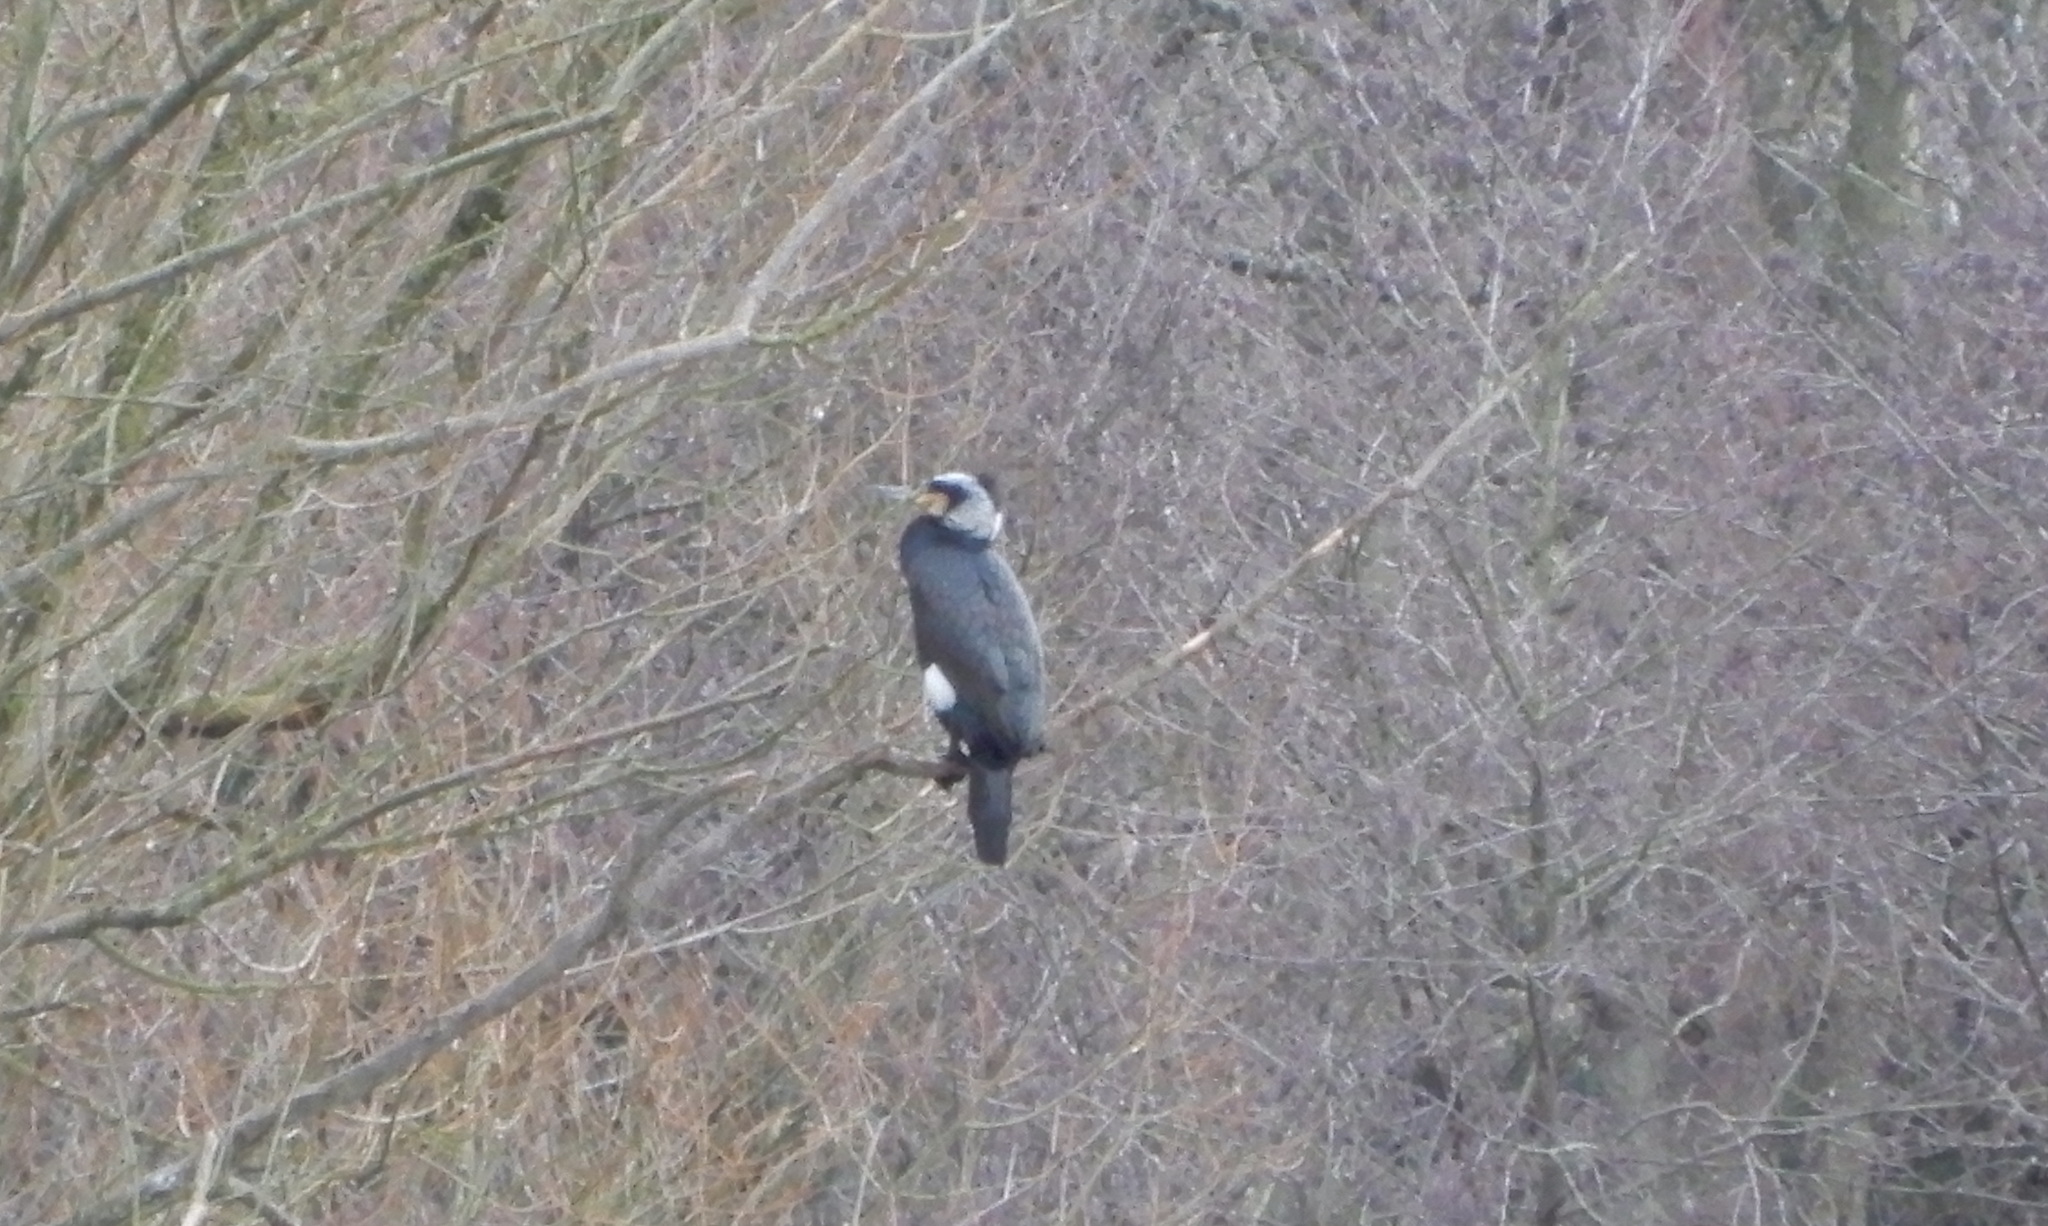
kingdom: Animalia
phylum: Chordata
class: Aves
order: Suliformes
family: Phalacrocoracidae
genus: Phalacrocorax
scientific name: Phalacrocorax carbo
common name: Great cormorant
